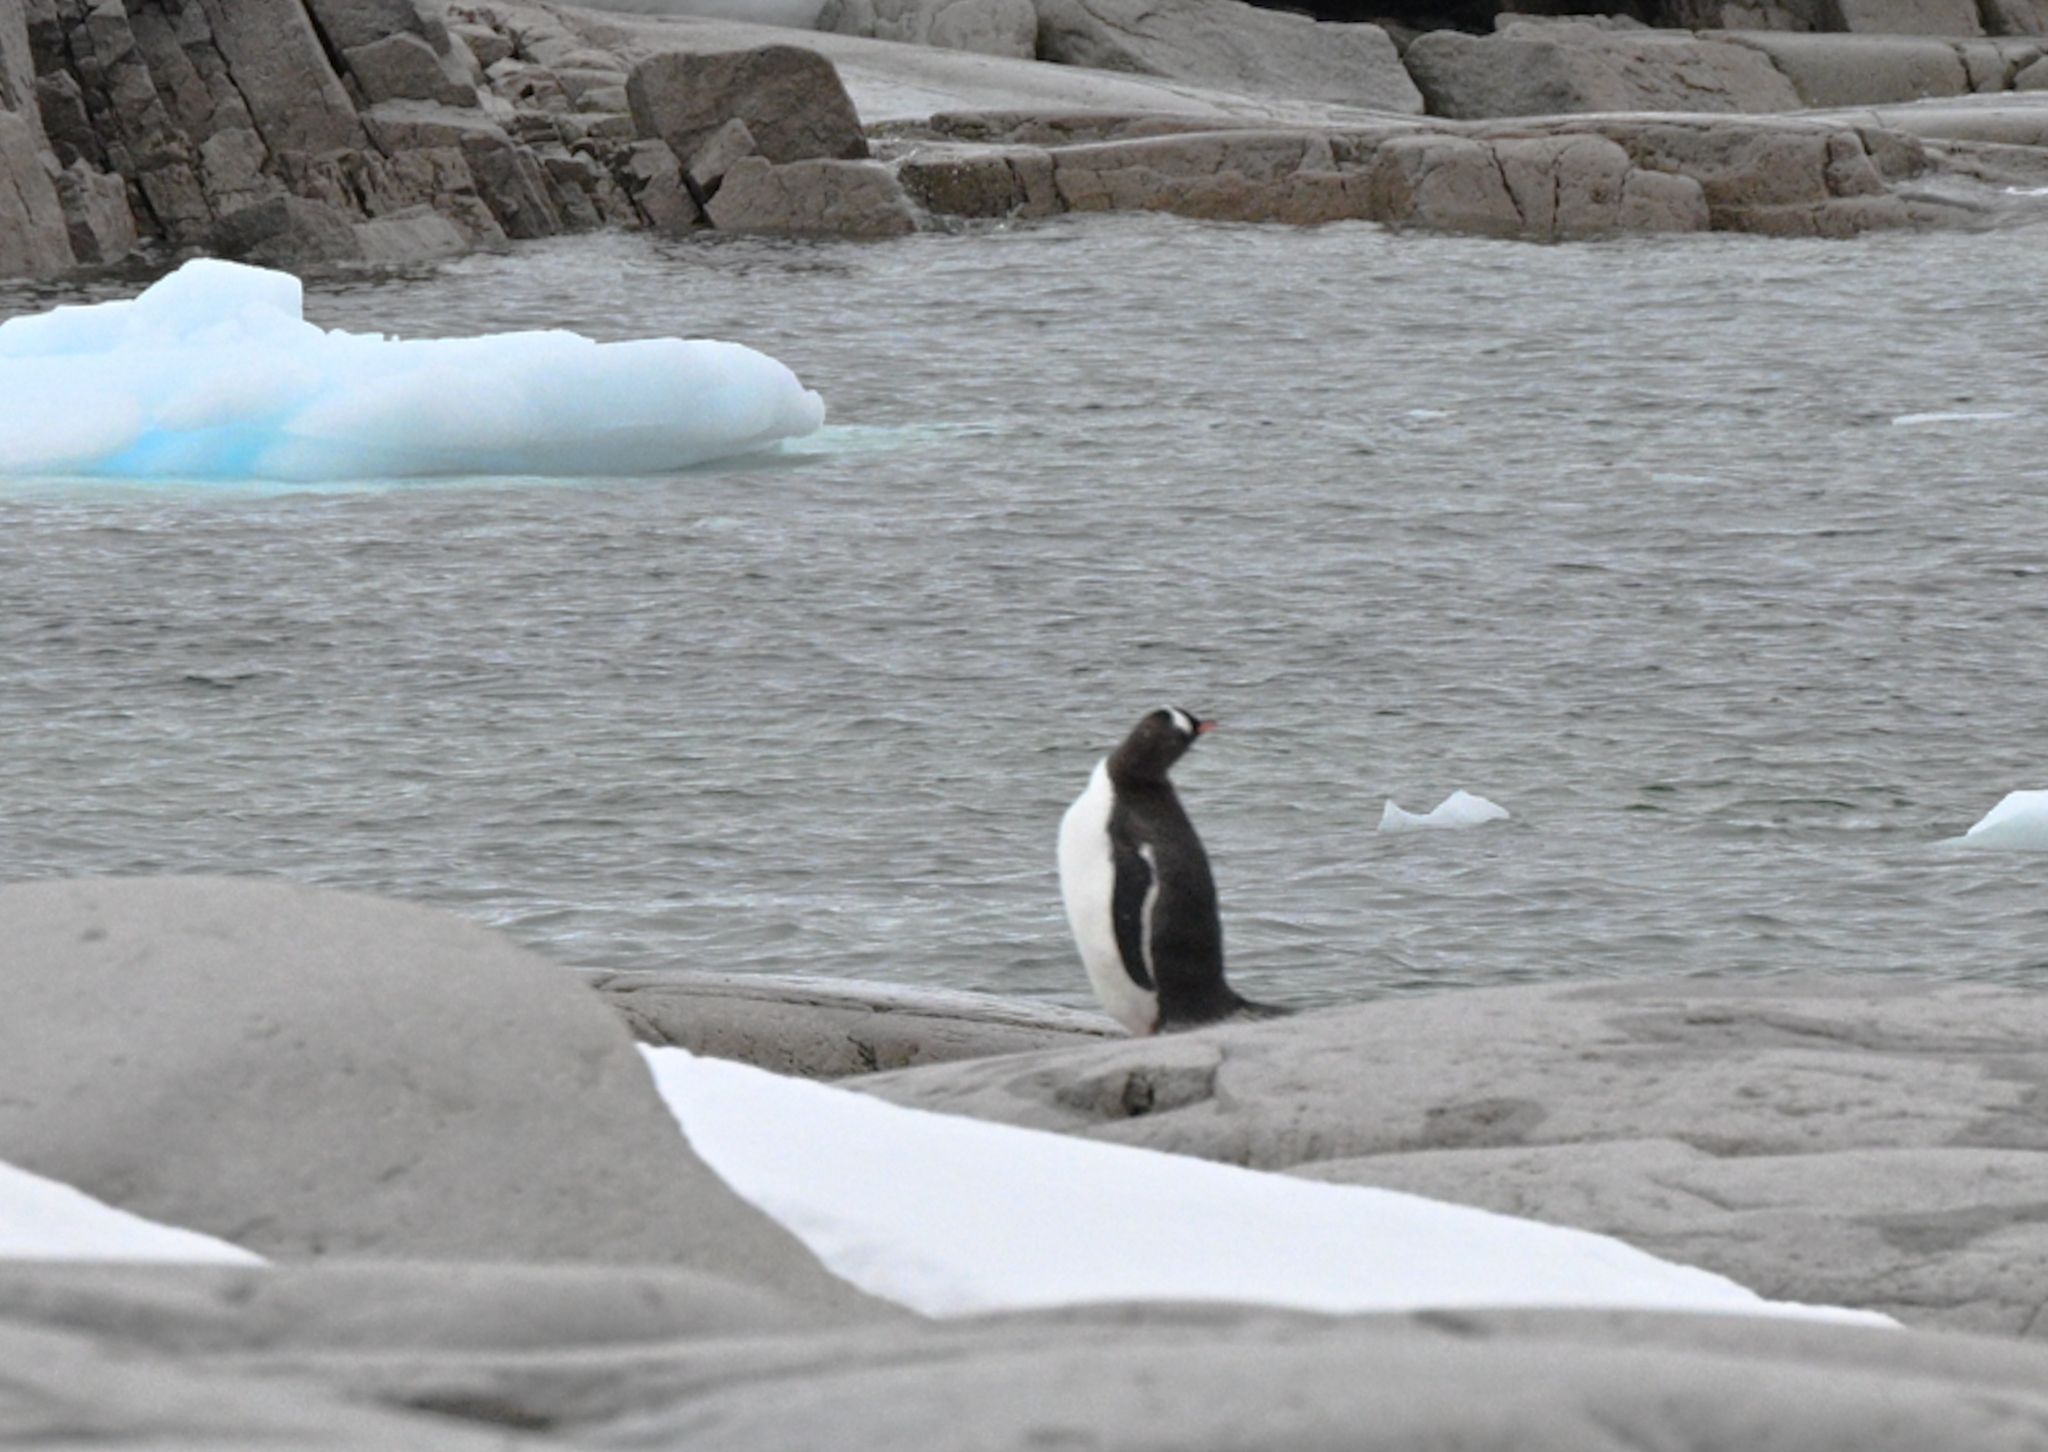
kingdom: Animalia
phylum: Chordata
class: Aves
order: Sphenisciformes
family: Spheniscidae
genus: Pygoscelis
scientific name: Pygoscelis papua
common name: Gentoo penguin
